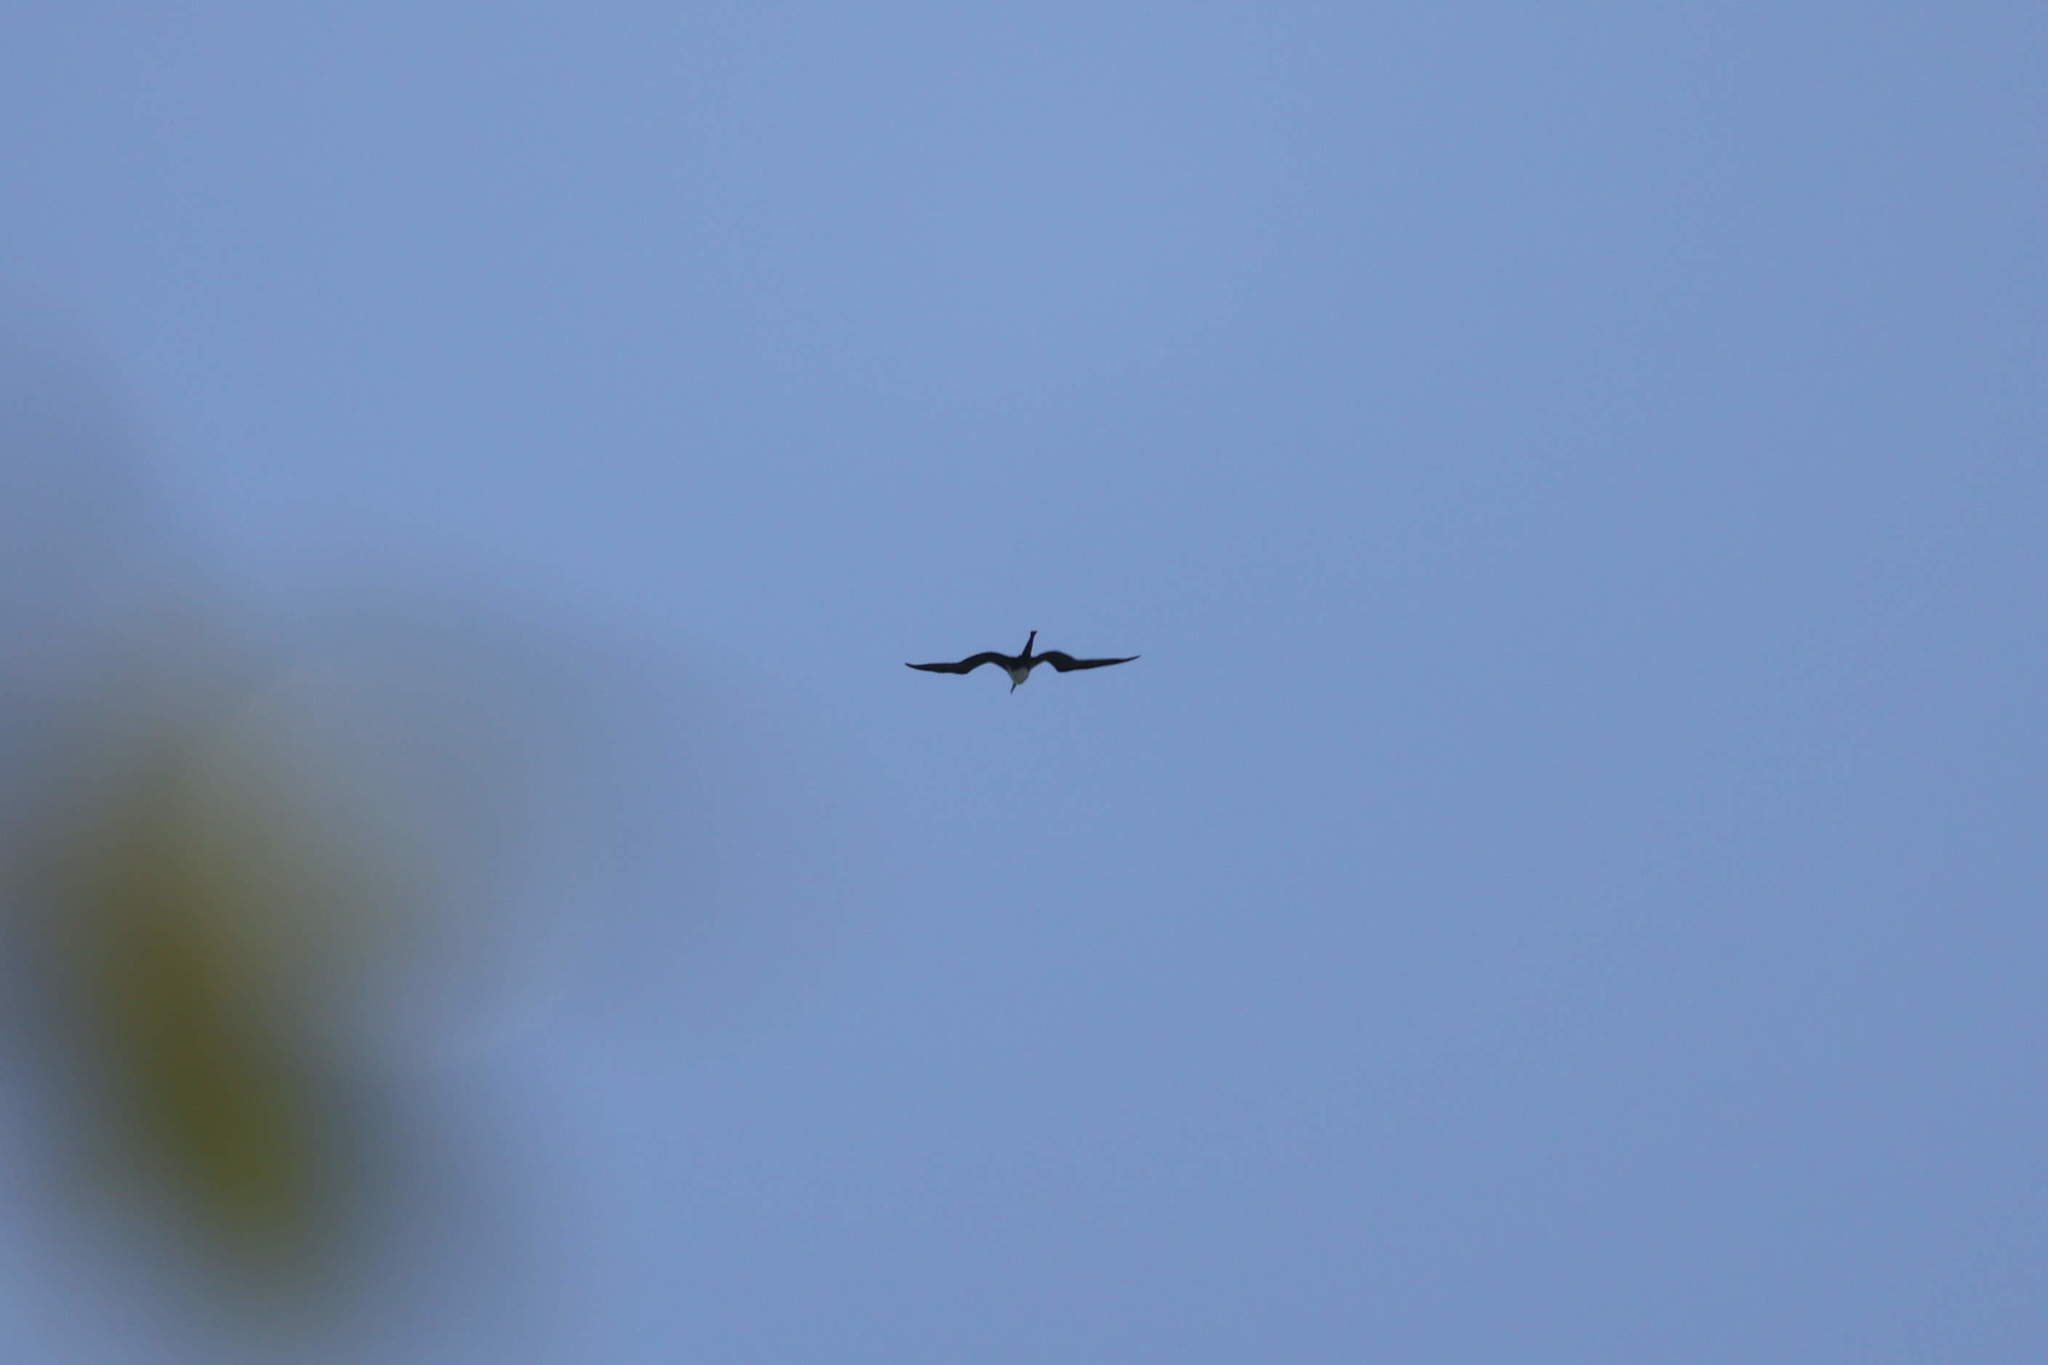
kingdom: Animalia
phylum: Chordata
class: Aves
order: Suliformes
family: Fregatidae
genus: Fregata
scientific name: Fregata magnificens
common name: Magnificent frigatebird
